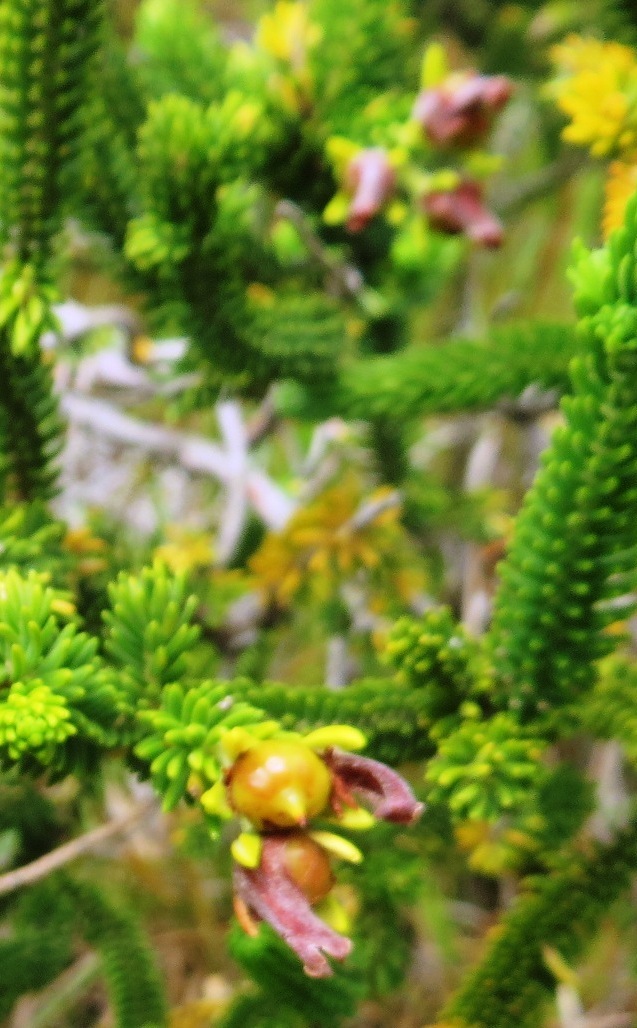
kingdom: Plantae
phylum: Tracheophyta
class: Magnoliopsida
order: Ericales
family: Ericaceae
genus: Erica
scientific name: Erica brachialis
